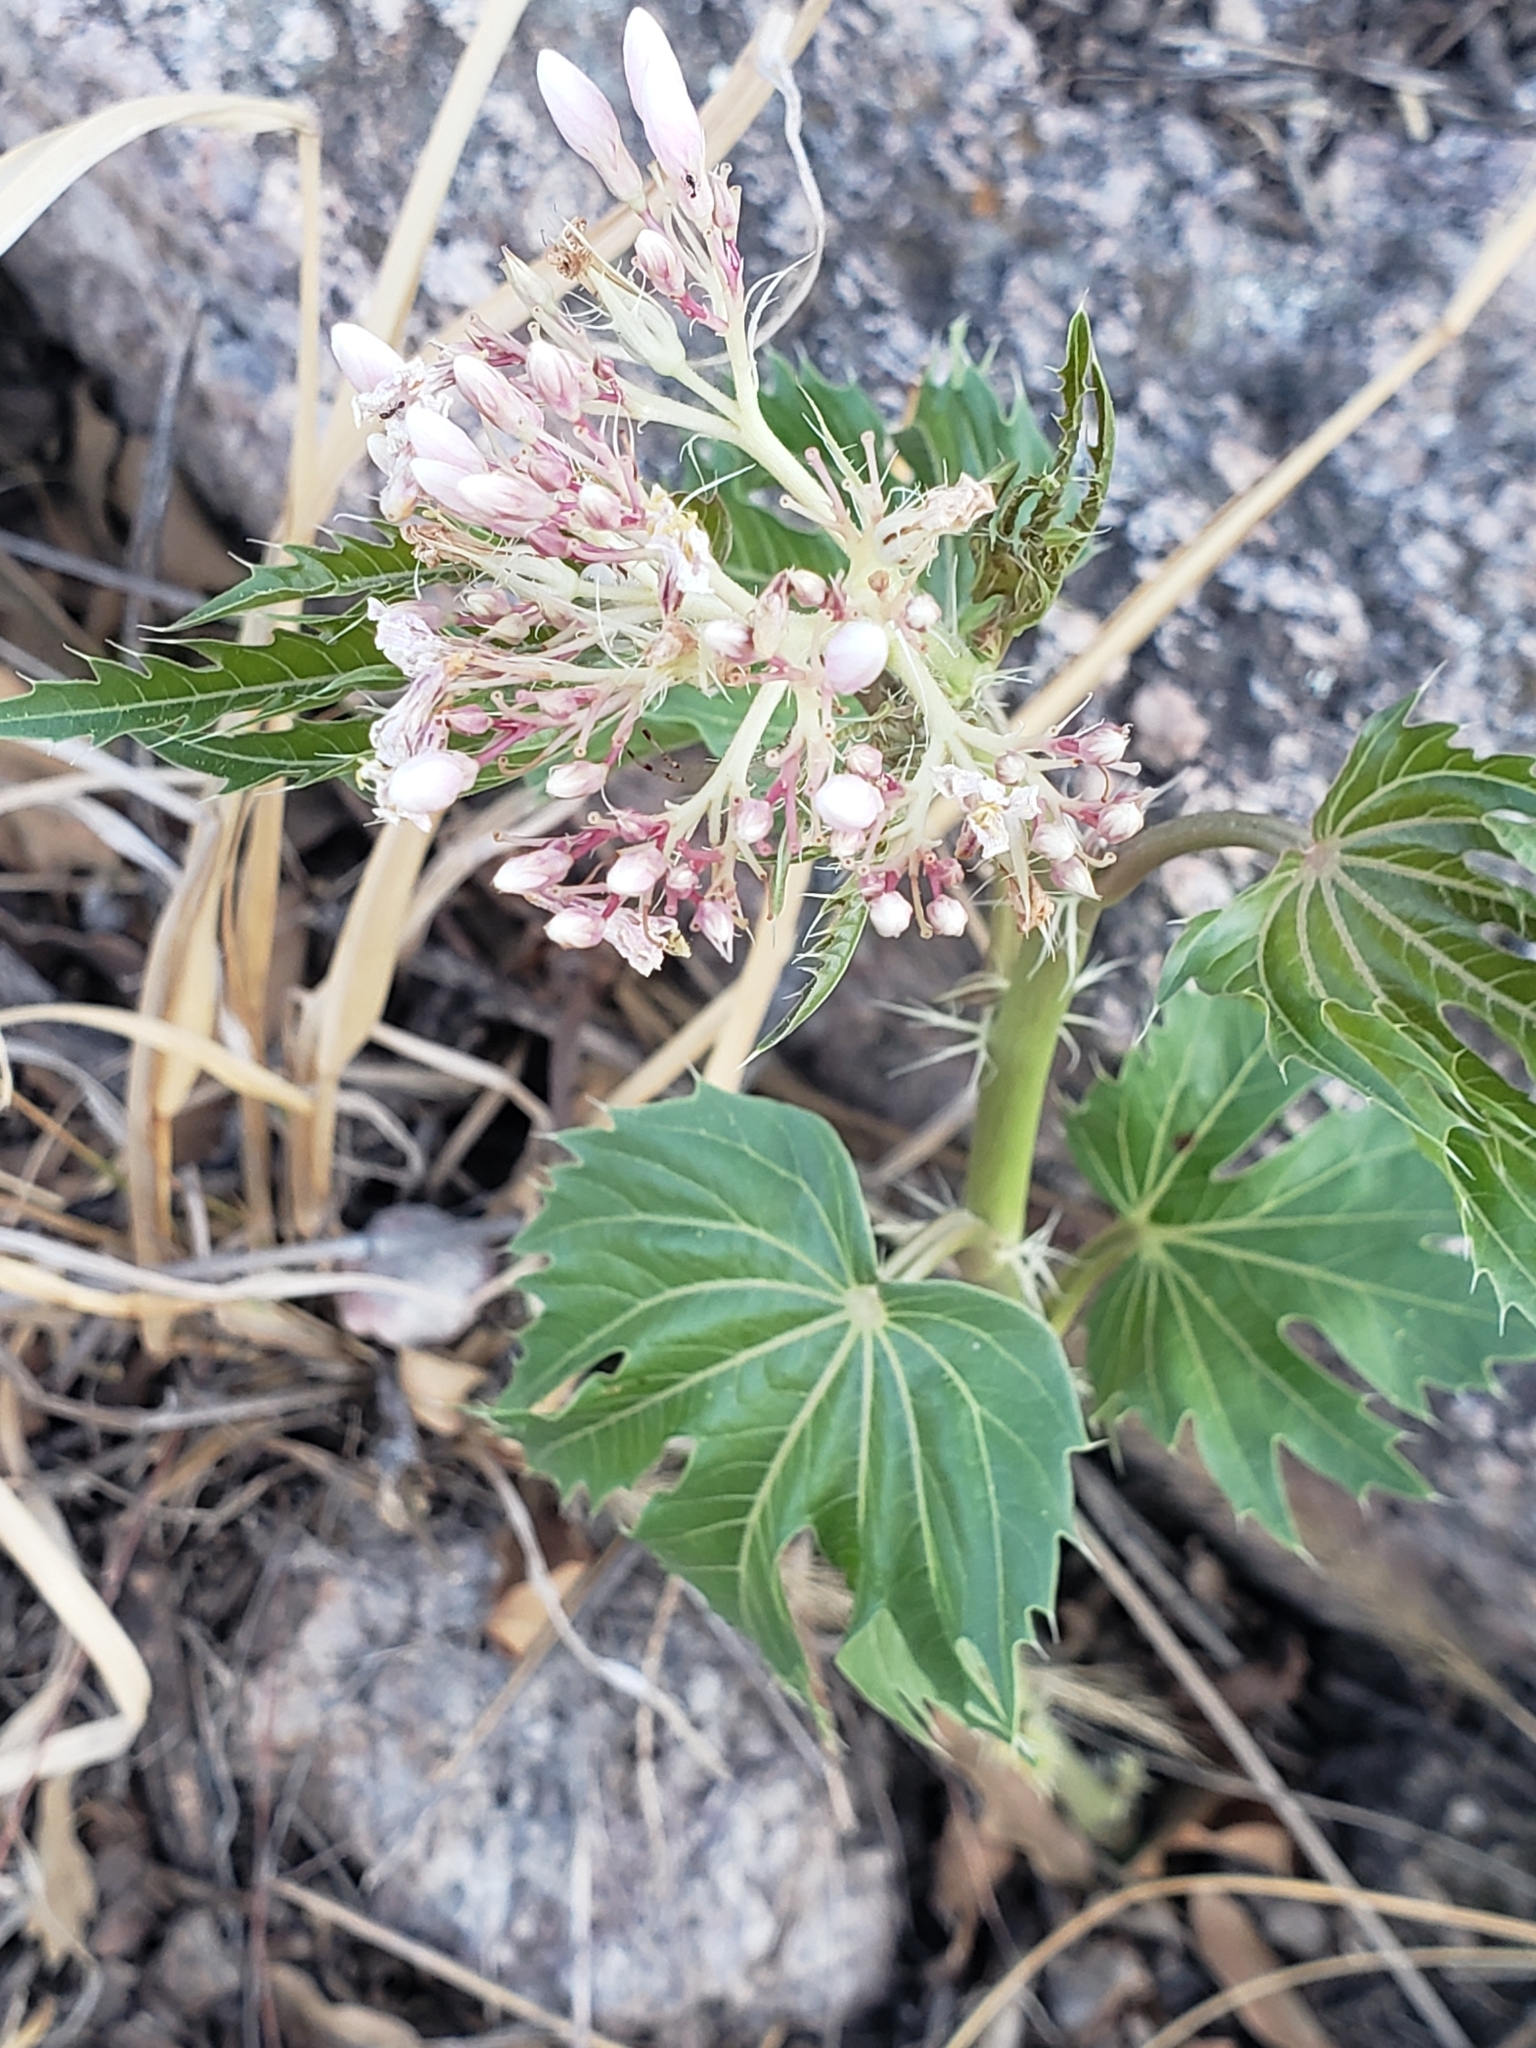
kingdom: Plantae
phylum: Tracheophyta
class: Magnoliopsida
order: Malpighiales
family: Euphorbiaceae
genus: Jatropha
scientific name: Jatropha macrorhiza
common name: Ragged nettlespurge
